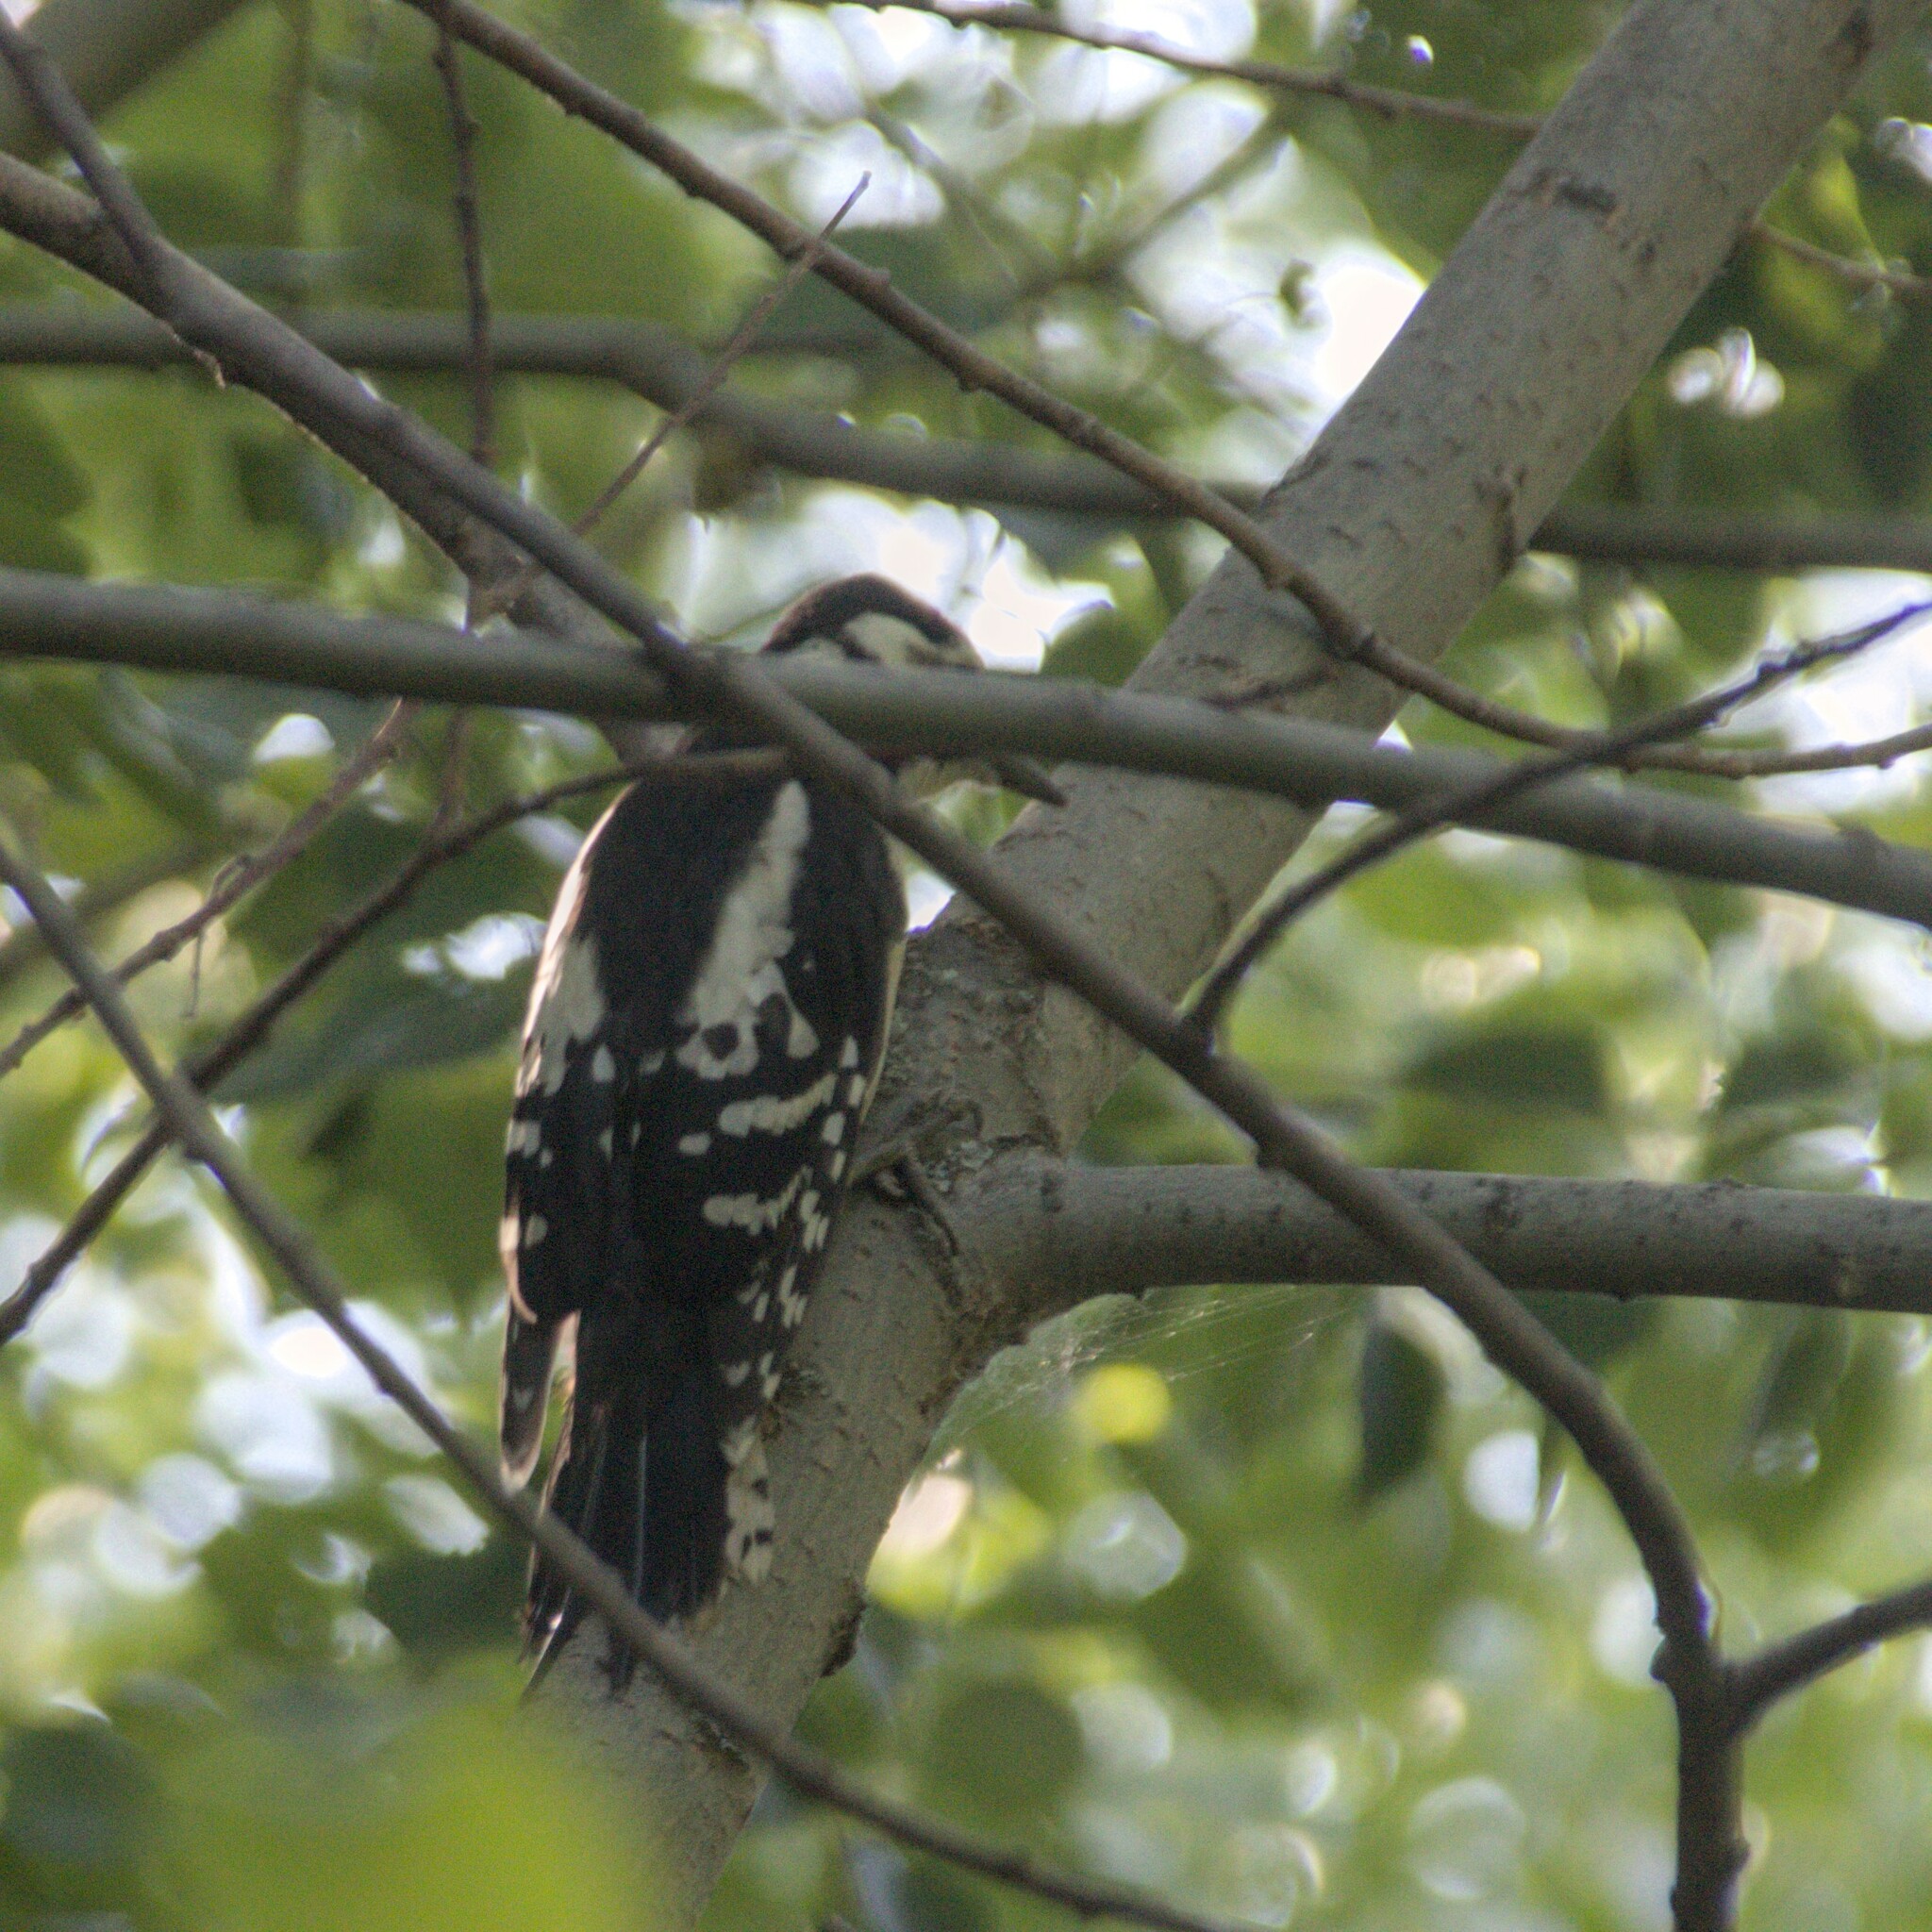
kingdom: Animalia
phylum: Chordata
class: Aves
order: Piciformes
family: Picidae
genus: Dendrocopos
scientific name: Dendrocopos major
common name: Great spotted woodpecker
